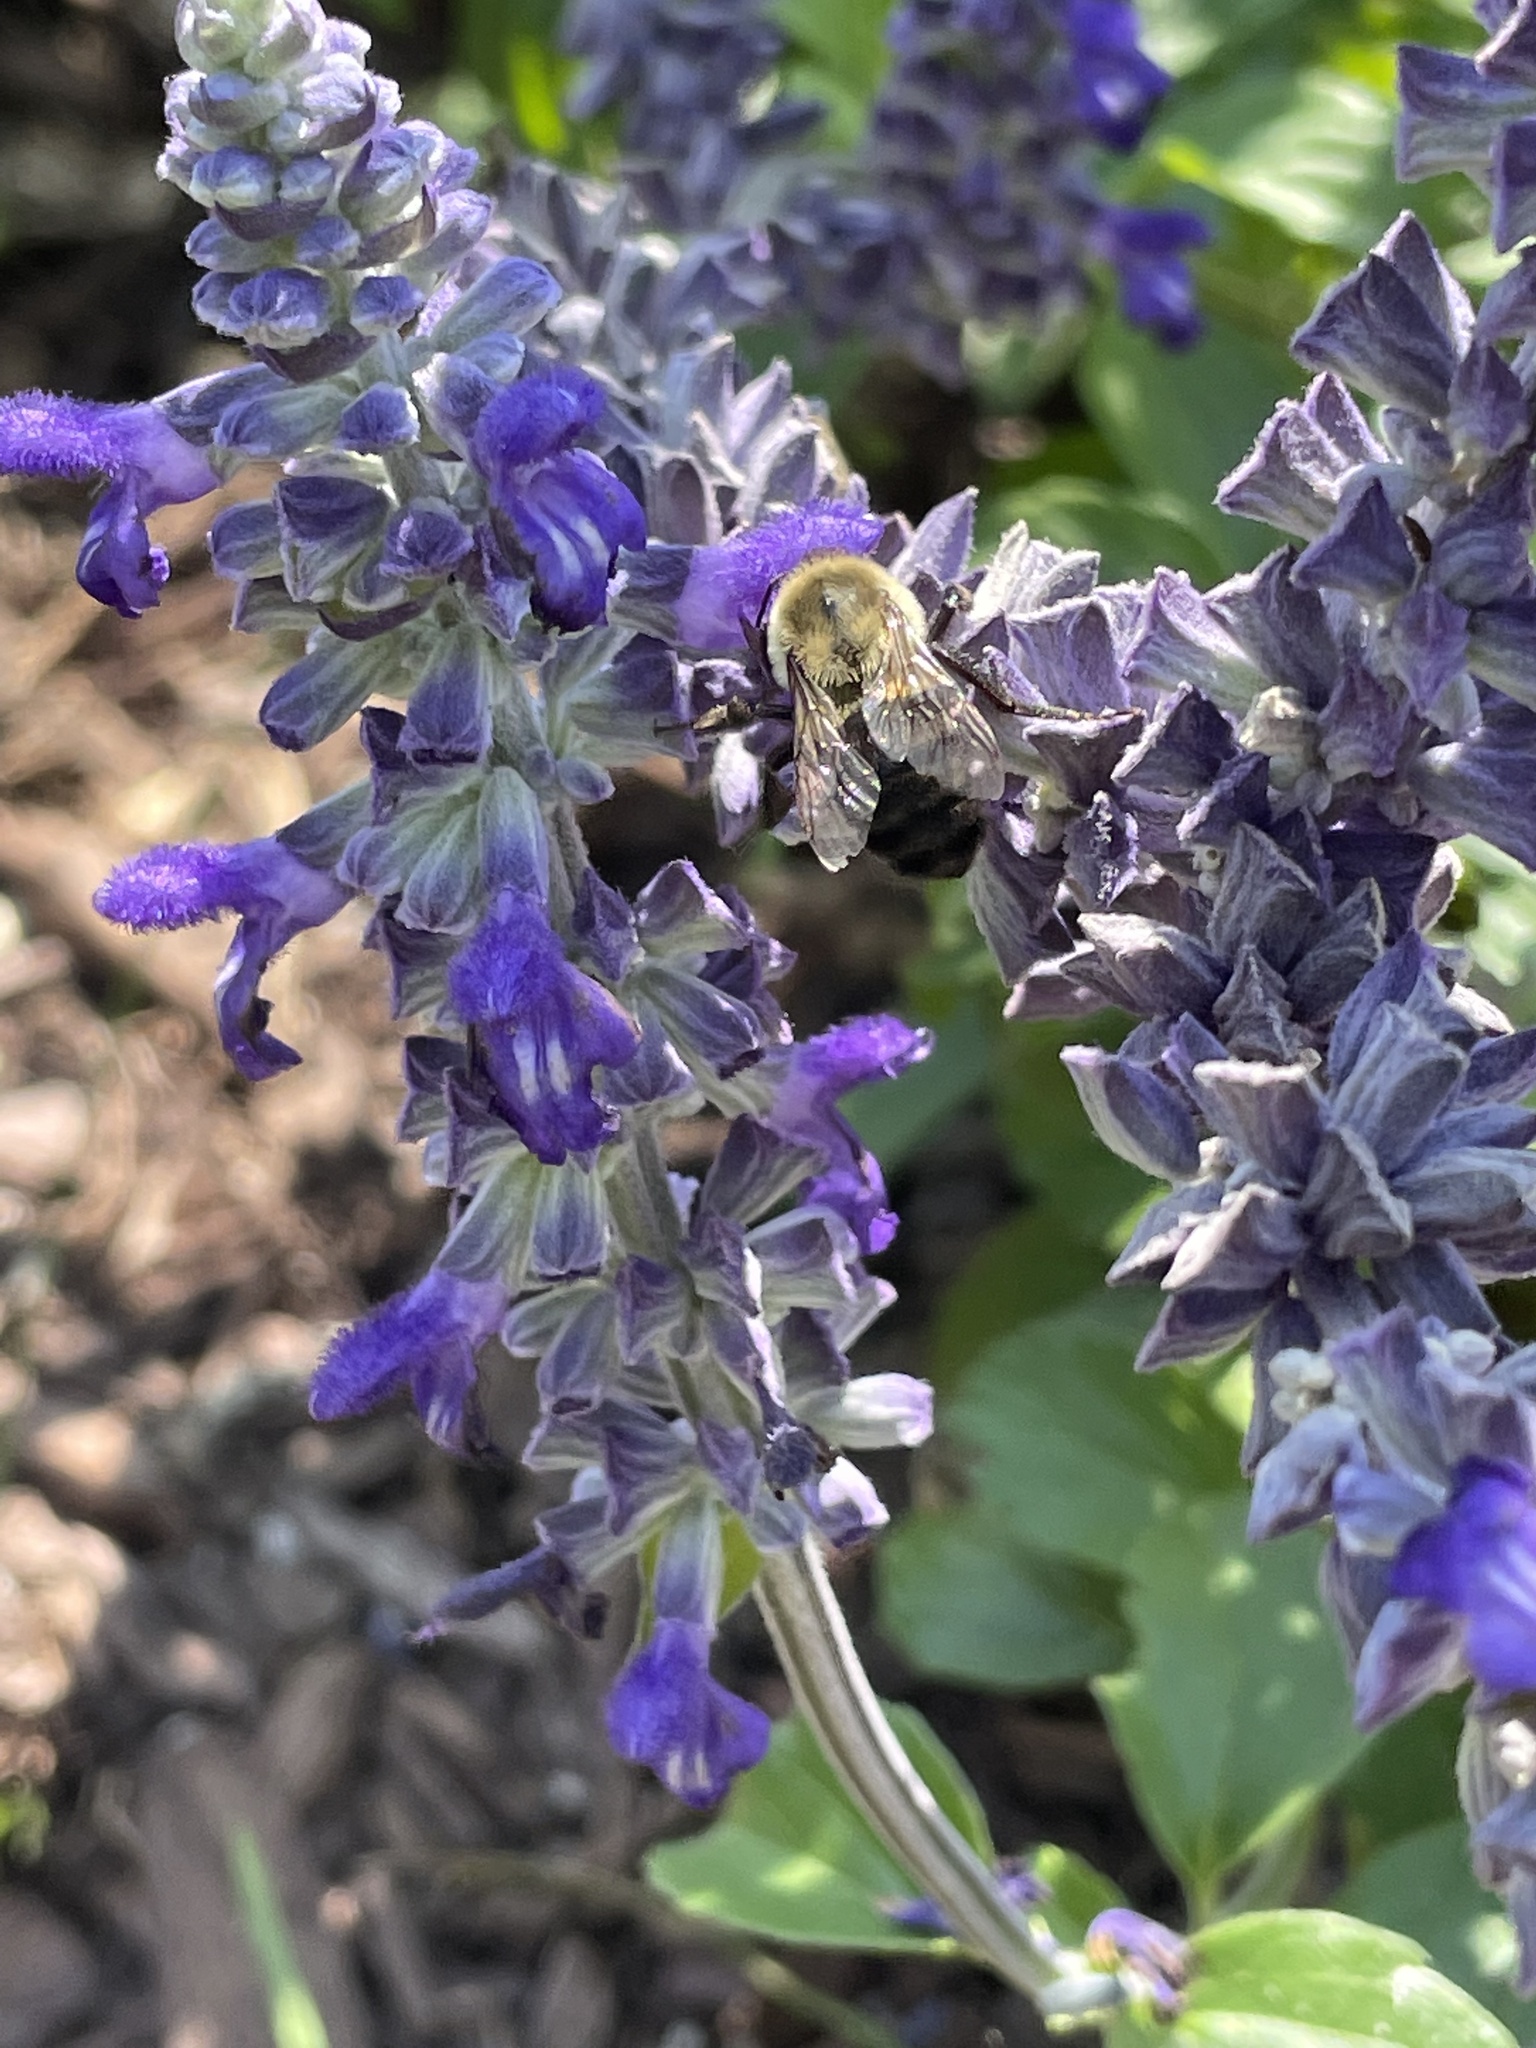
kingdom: Animalia
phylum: Arthropoda
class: Insecta
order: Hymenoptera
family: Apidae
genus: Bombus
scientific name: Bombus impatiens
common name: Common eastern bumble bee
